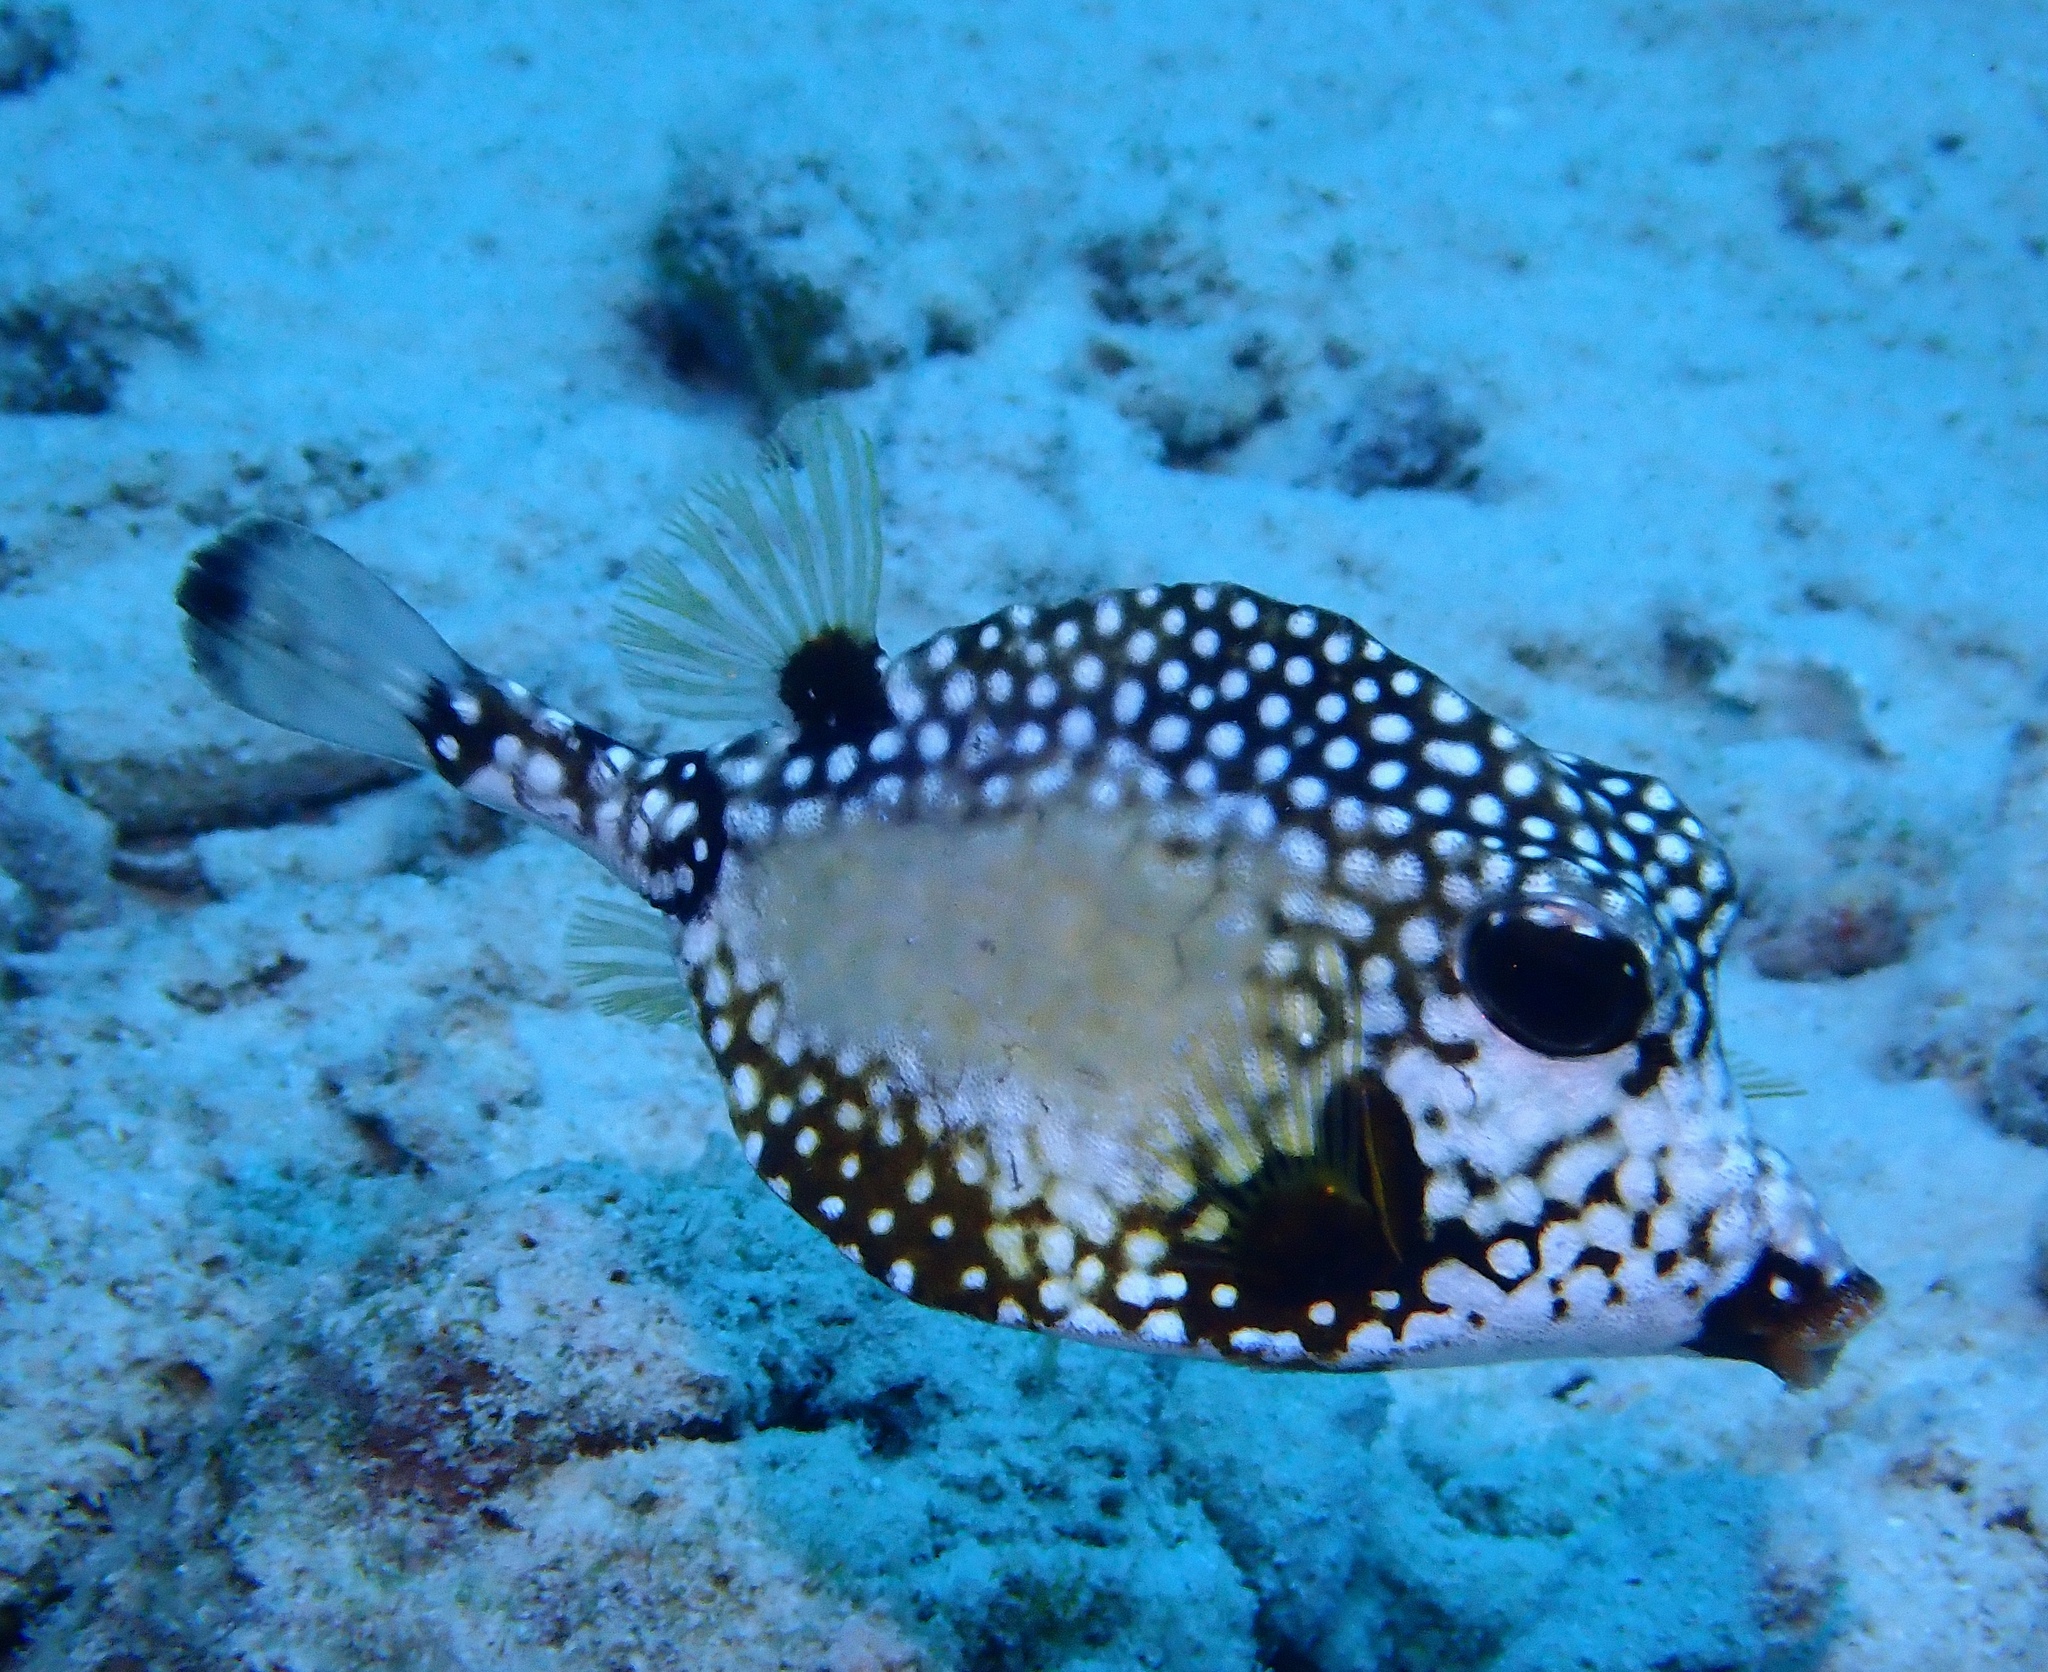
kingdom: Animalia
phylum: Chordata
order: Tetraodontiformes
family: Ostraciidae
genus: Lactophrys
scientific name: Lactophrys triqueter
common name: Smooth trunkfish
